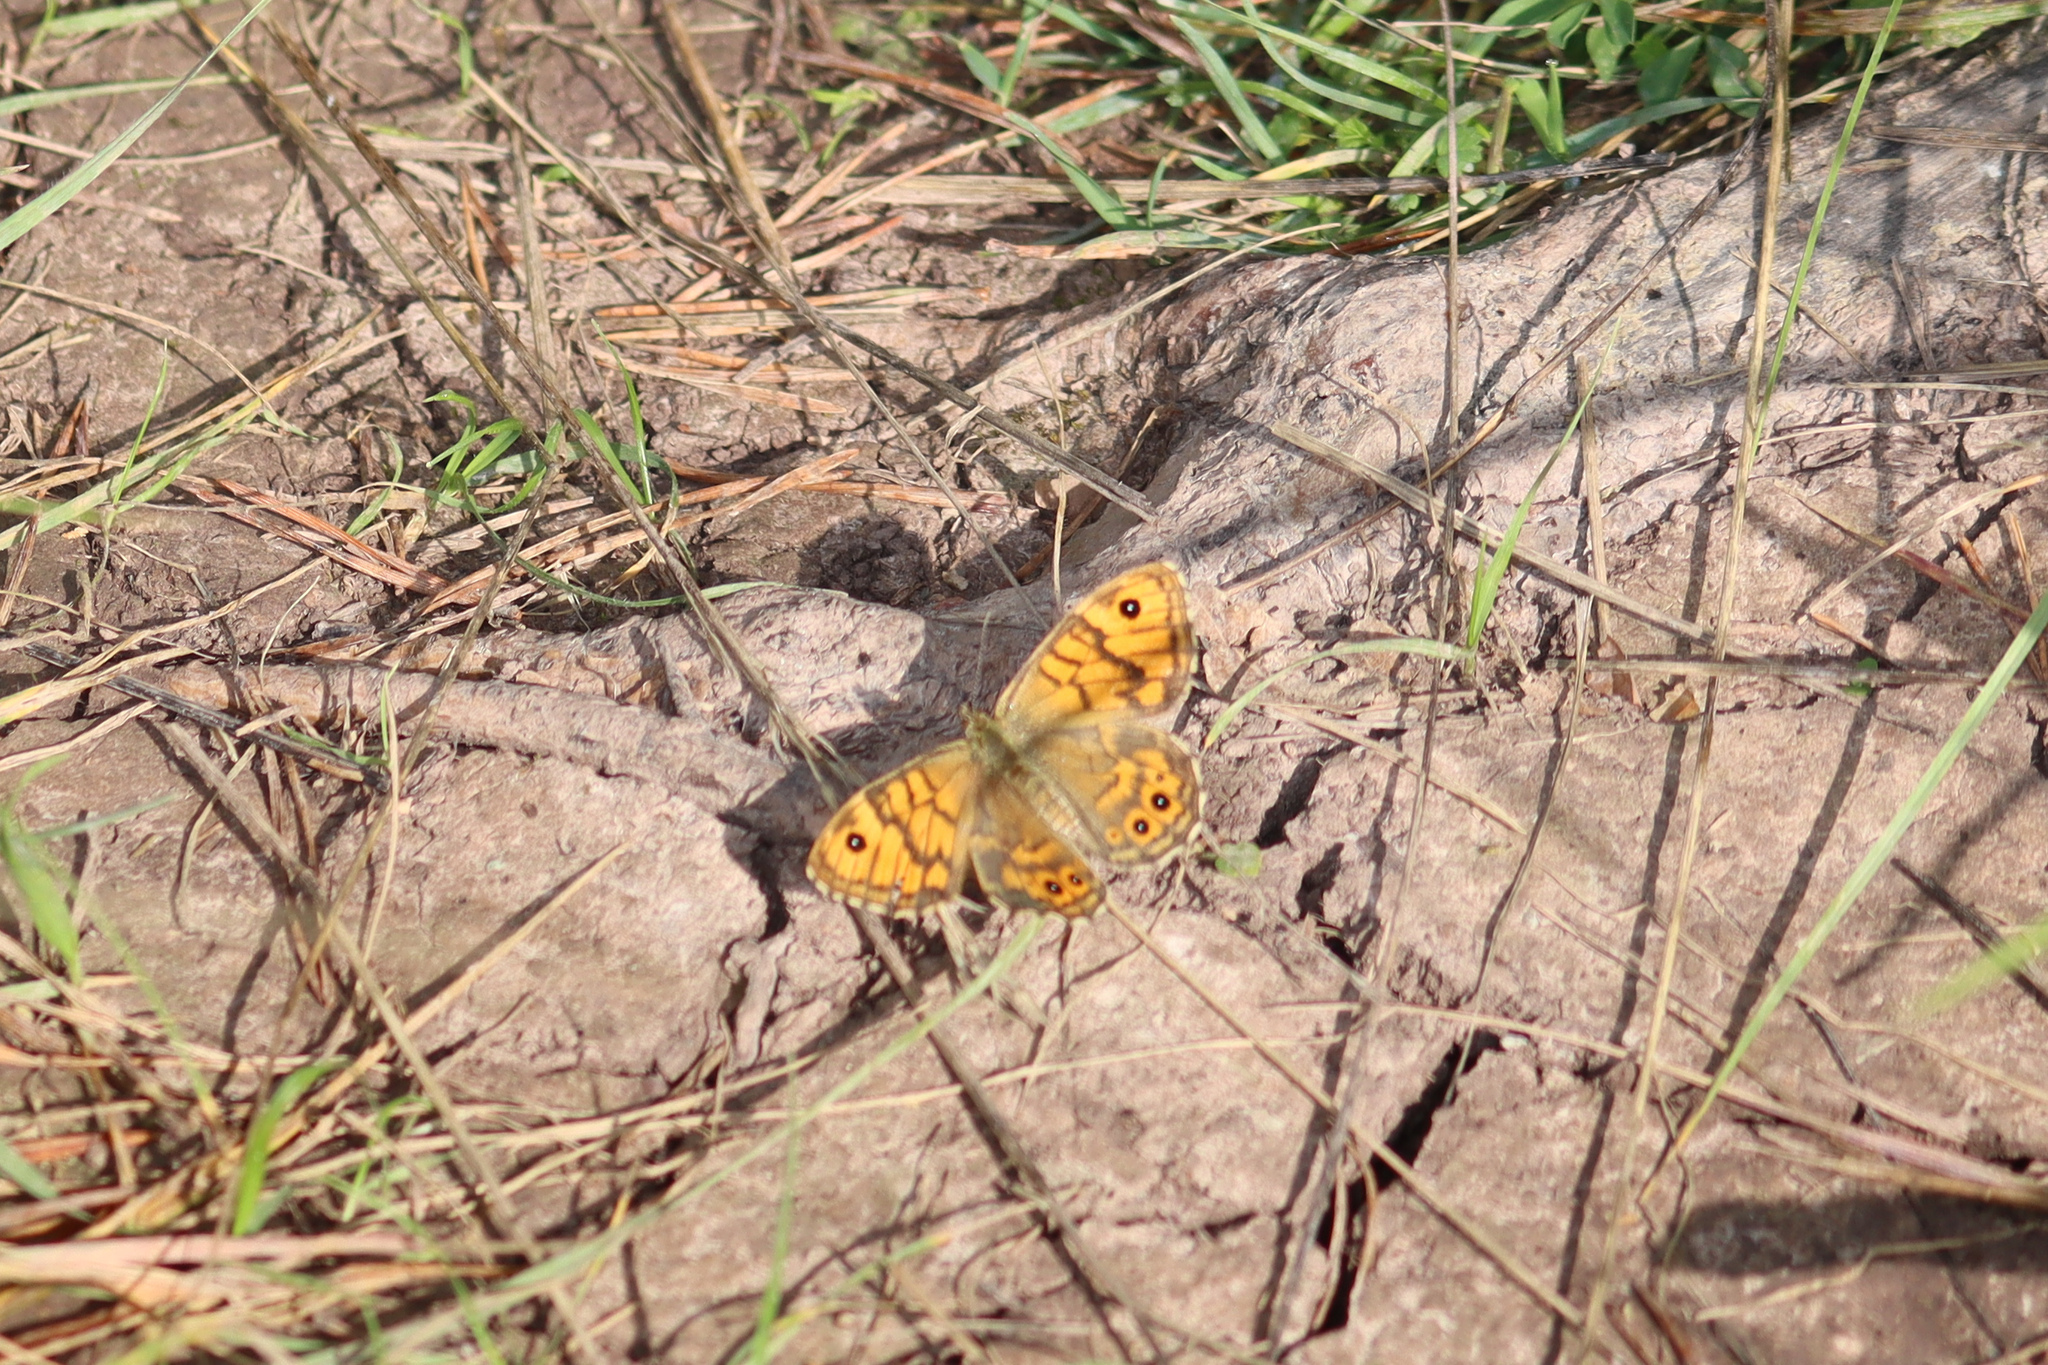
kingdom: Animalia
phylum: Arthropoda
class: Insecta
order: Lepidoptera
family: Nymphalidae
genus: Pararge
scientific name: Pararge Lasiommata megera
